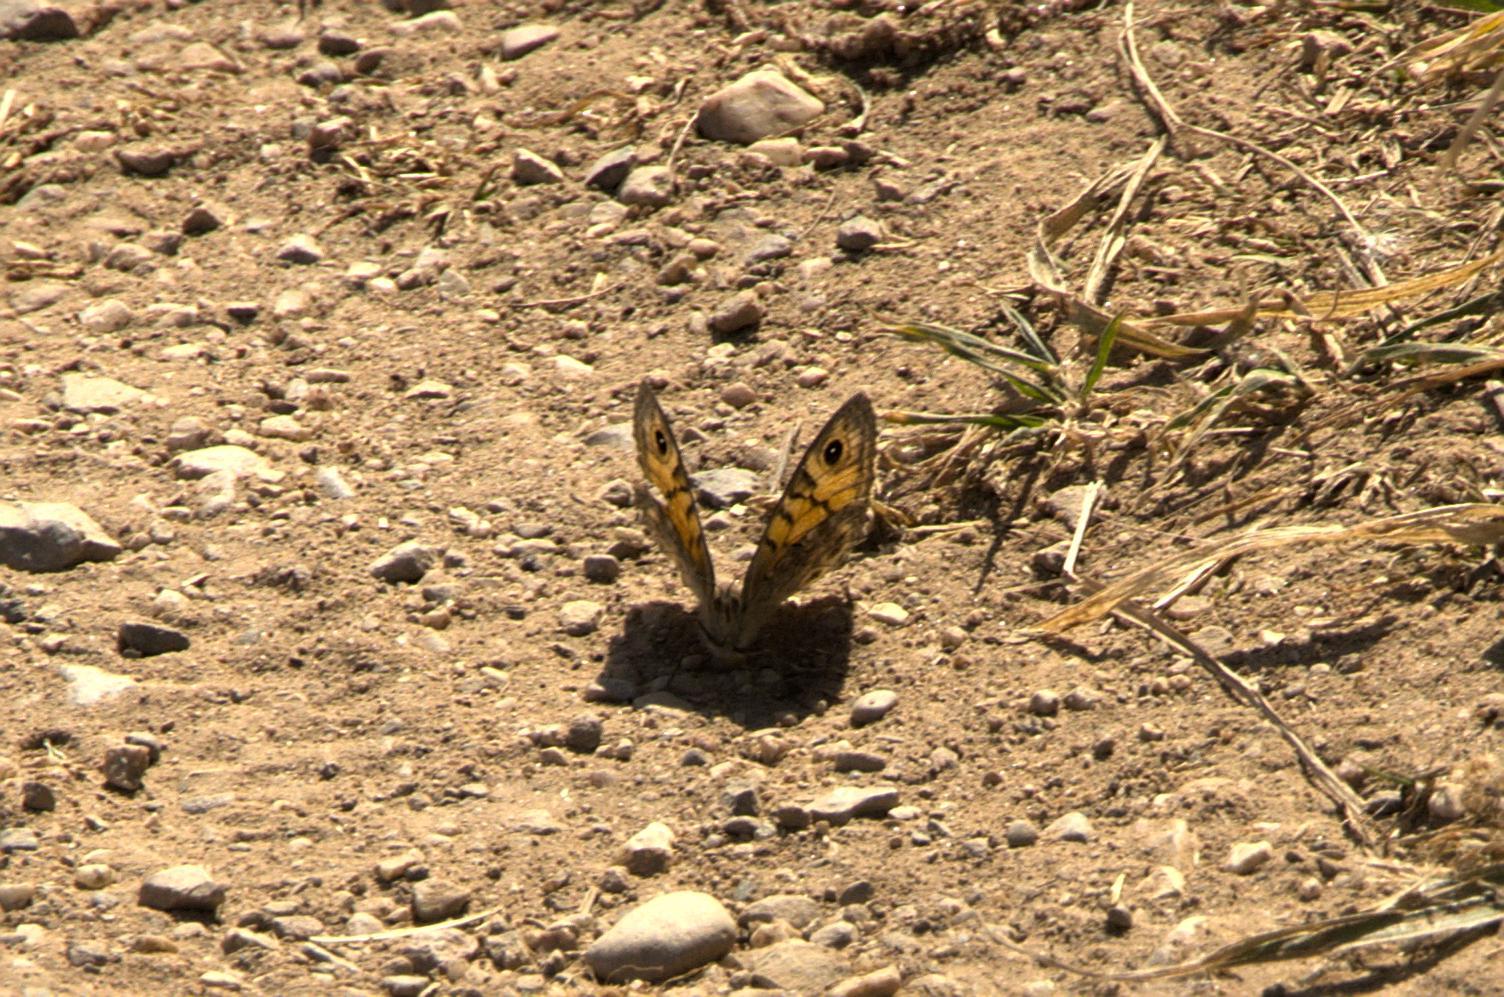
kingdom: Animalia
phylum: Arthropoda
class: Insecta
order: Lepidoptera
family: Nymphalidae
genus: Pararge
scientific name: Pararge Lasiommata megera
